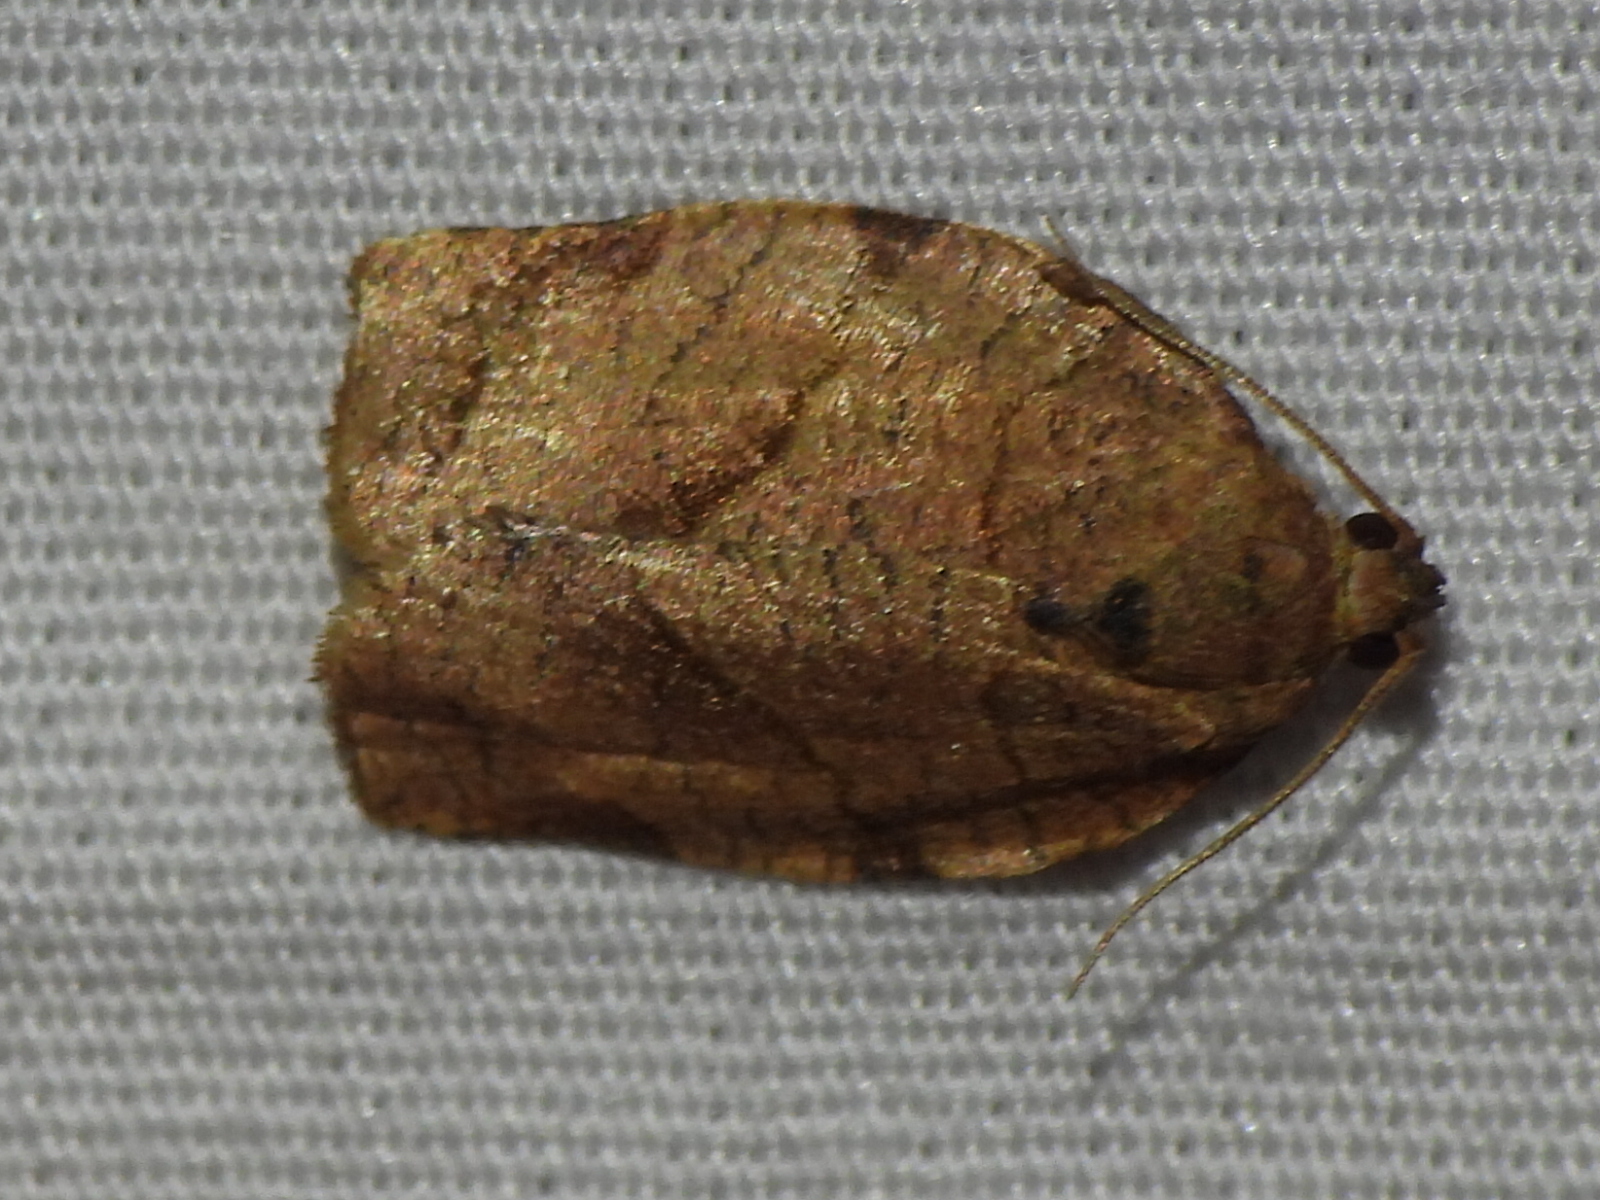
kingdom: Animalia
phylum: Arthropoda
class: Insecta
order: Lepidoptera
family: Tortricidae
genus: Choristoneura
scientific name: Choristoneura rosaceana
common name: Oblique-banded leafroller moth
